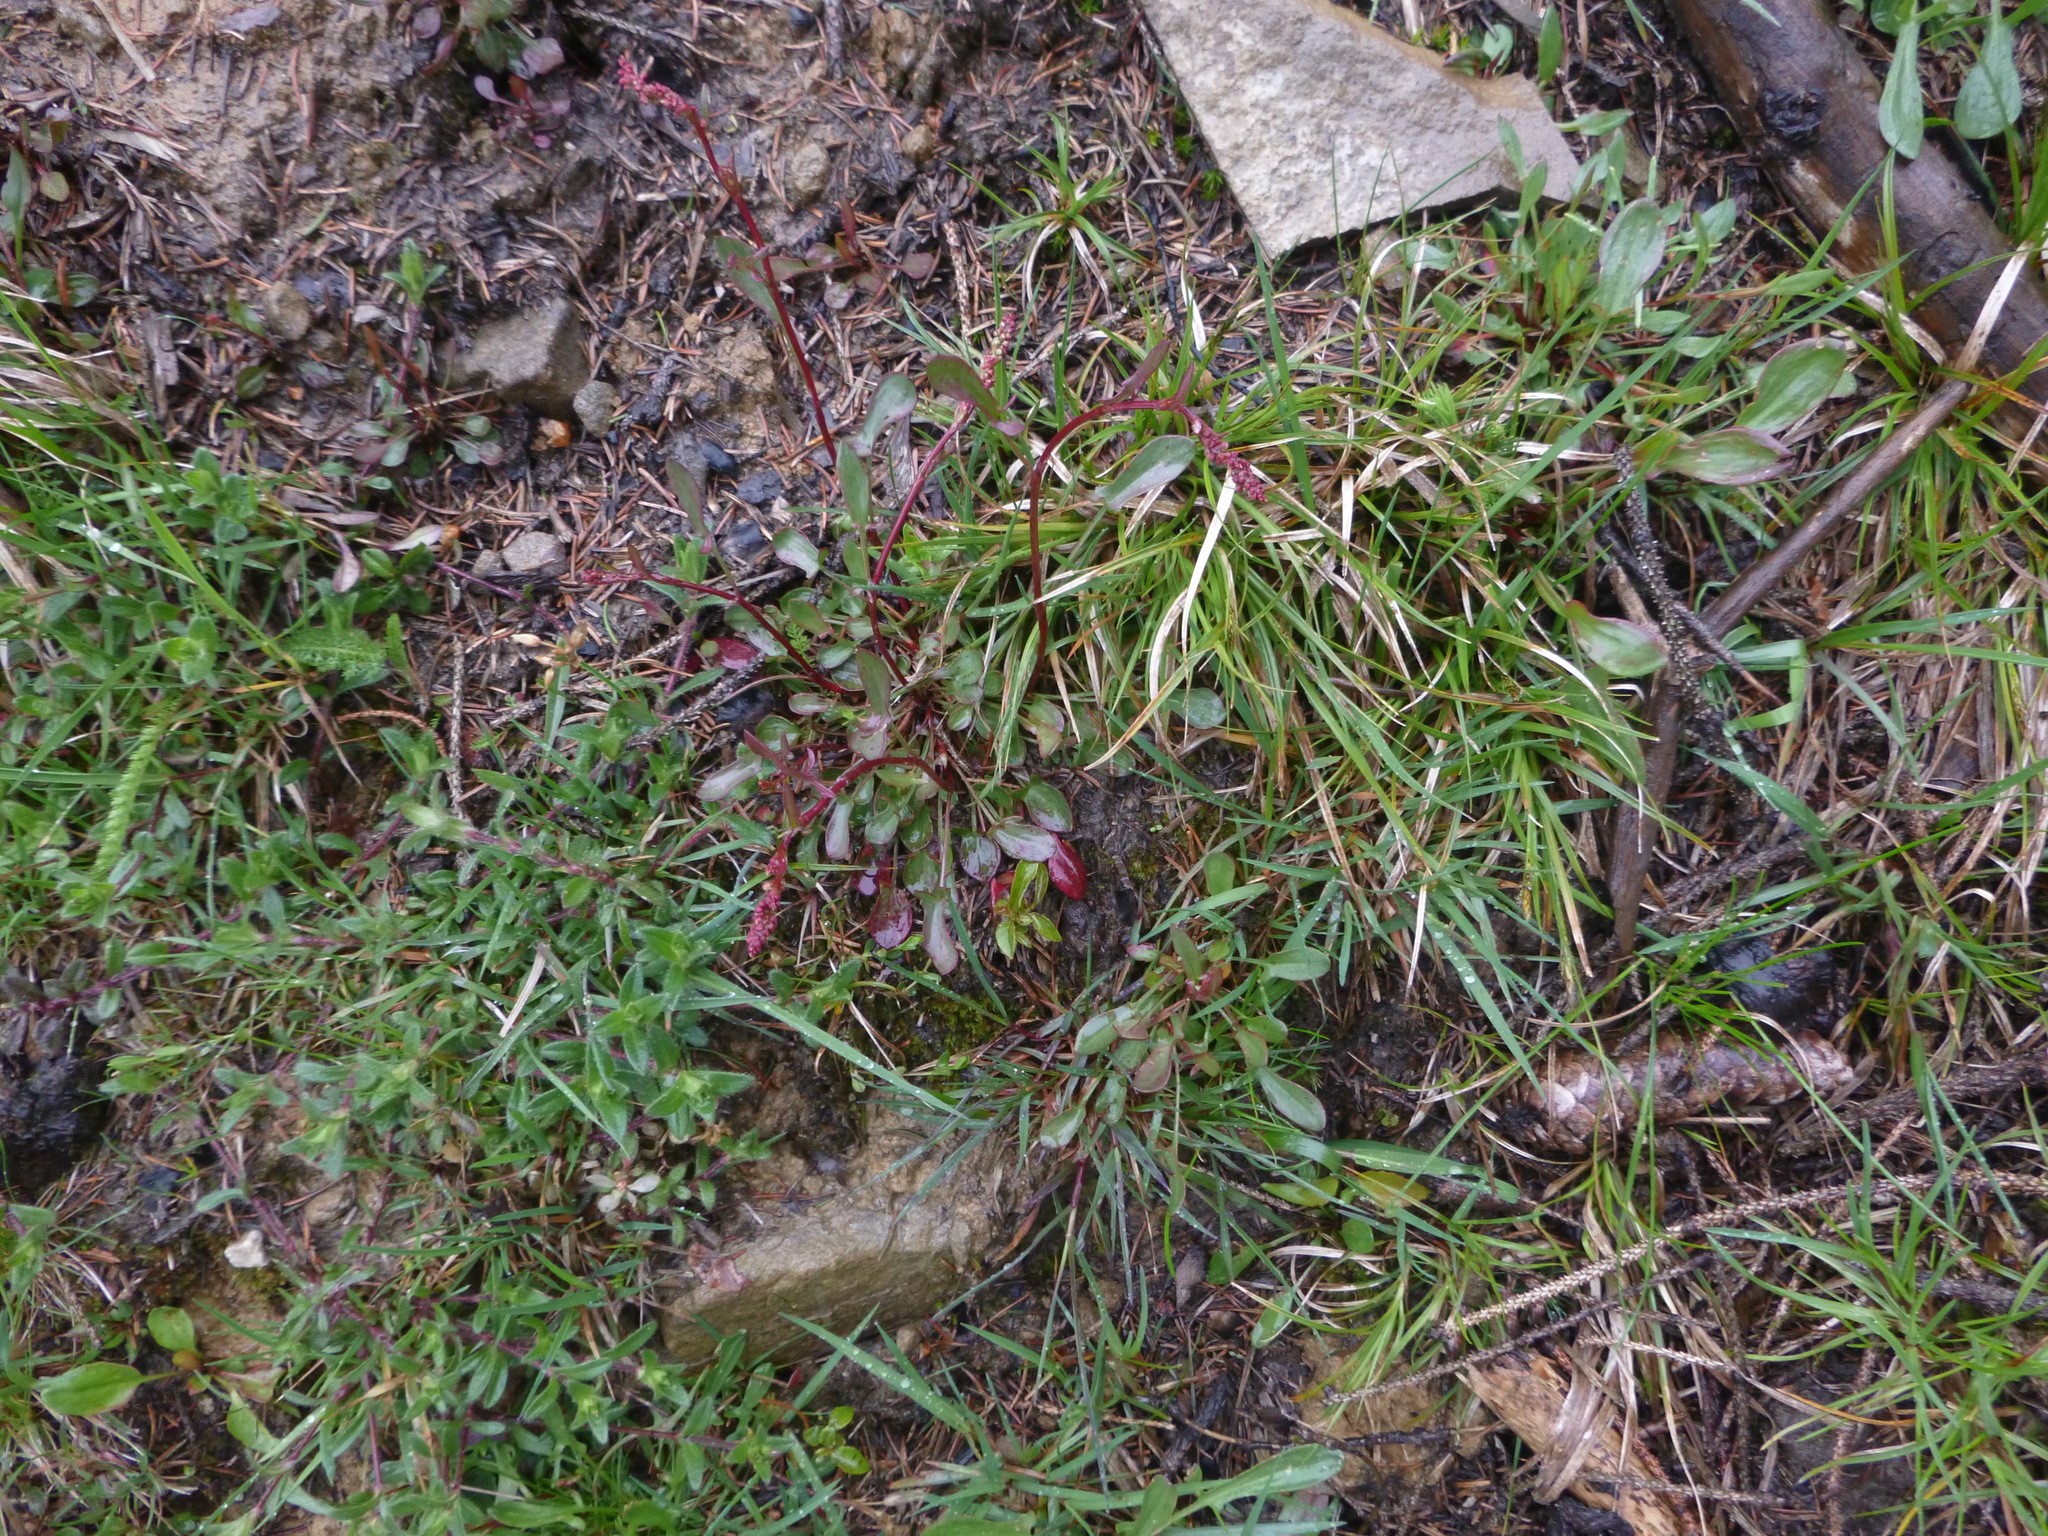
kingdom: Plantae
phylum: Tracheophyta
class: Magnoliopsida
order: Caryophyllales
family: Polygonaceae
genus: Rumex
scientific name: Rumex acetosella
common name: Common sheep sorrel
